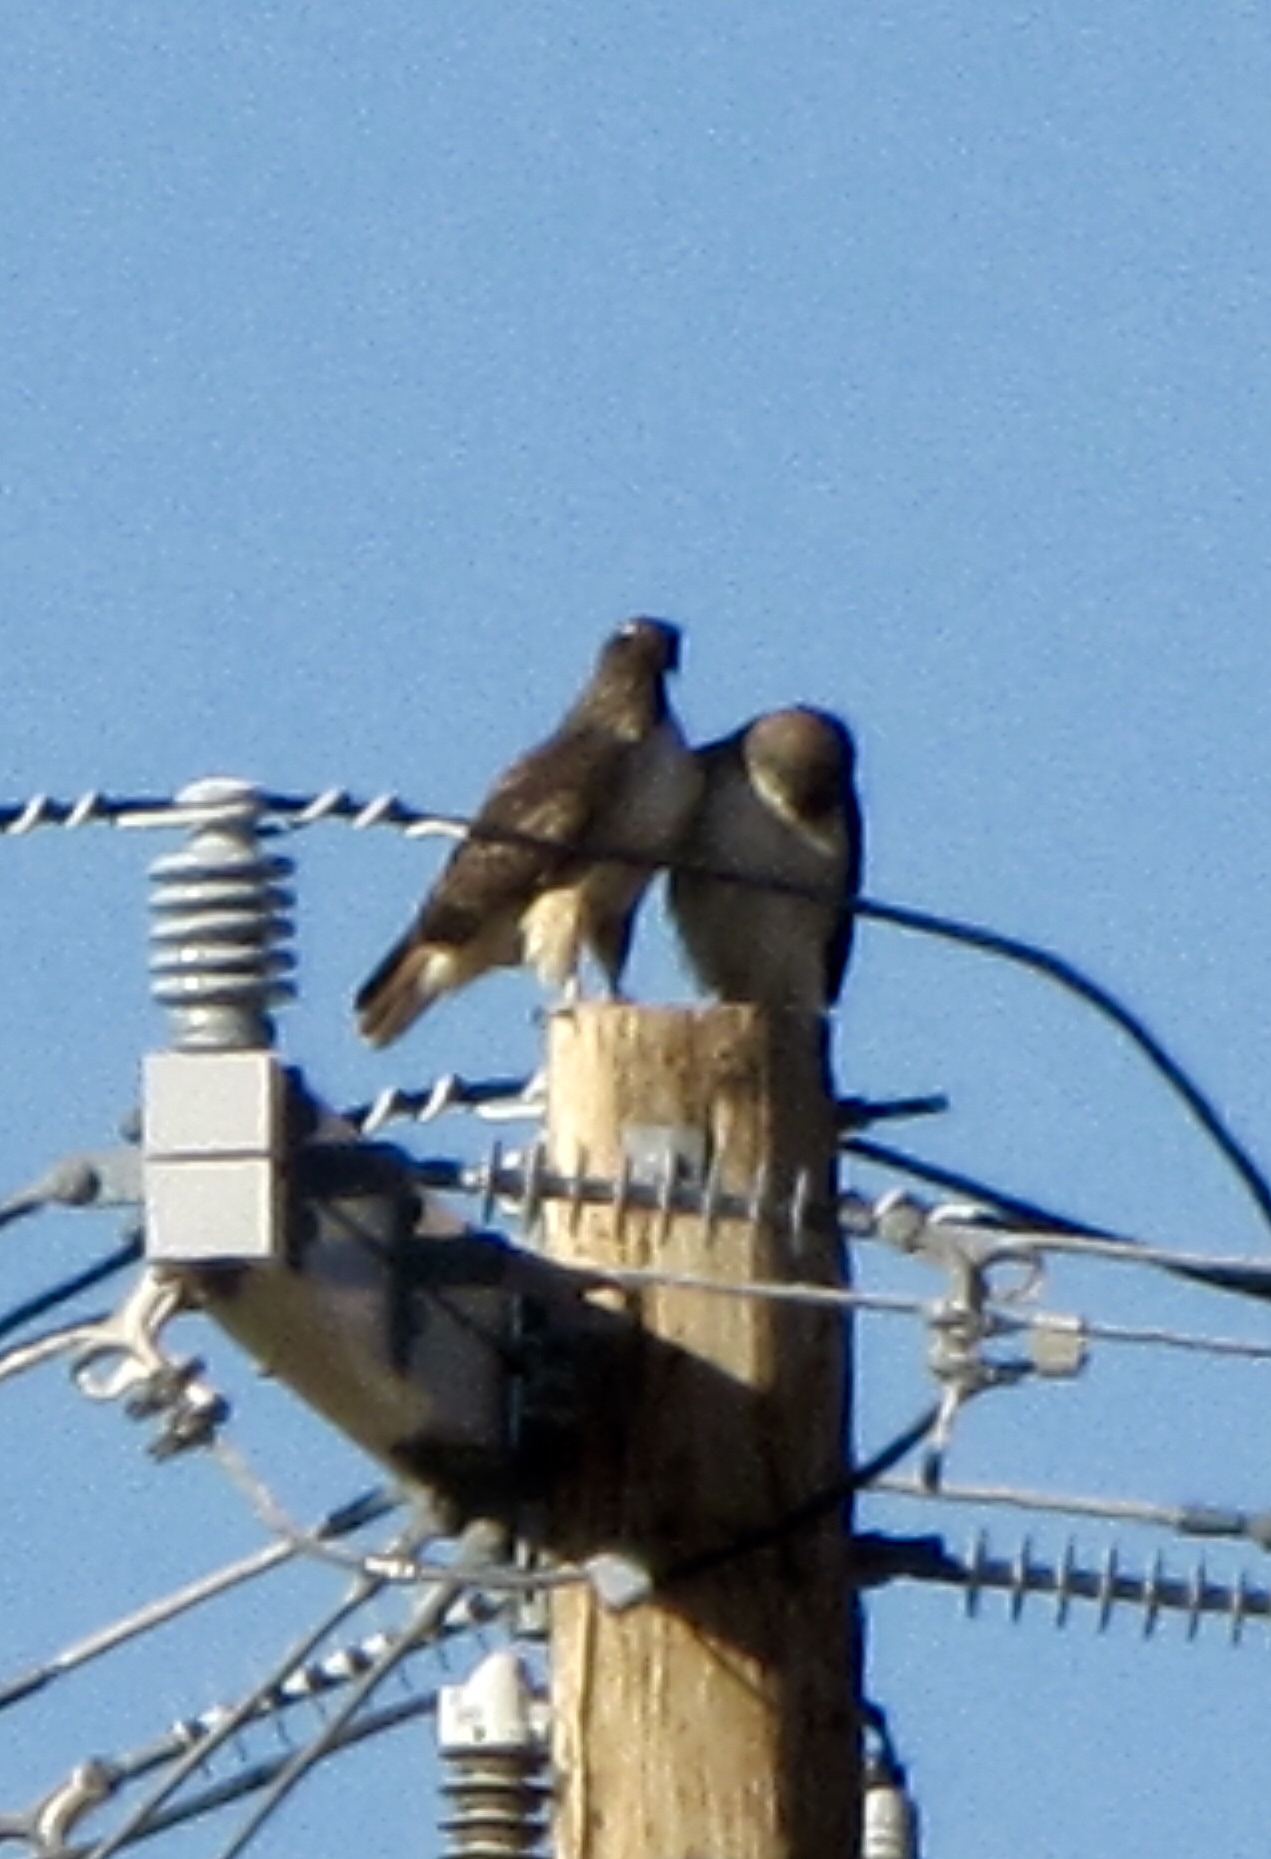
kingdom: Animalia
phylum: Chordata
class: Aves
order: Accipitriformes
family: Accipitridae
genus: Buteo
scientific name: Buteo jamaicensis
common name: Red-tailed hawk
